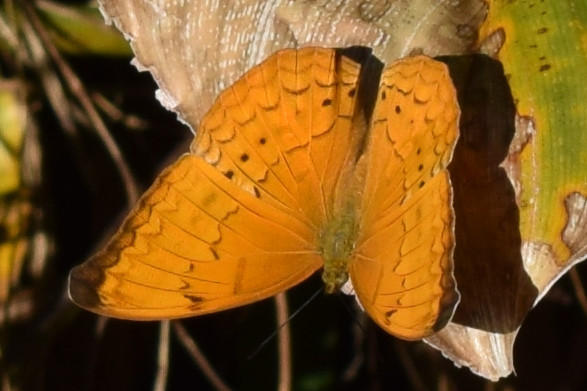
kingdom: Animalia
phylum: Arthropoda
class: Insecta
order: Lepidoptera
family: Nymphalidae
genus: Cirrochroa
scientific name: Cirrochroa aoris
